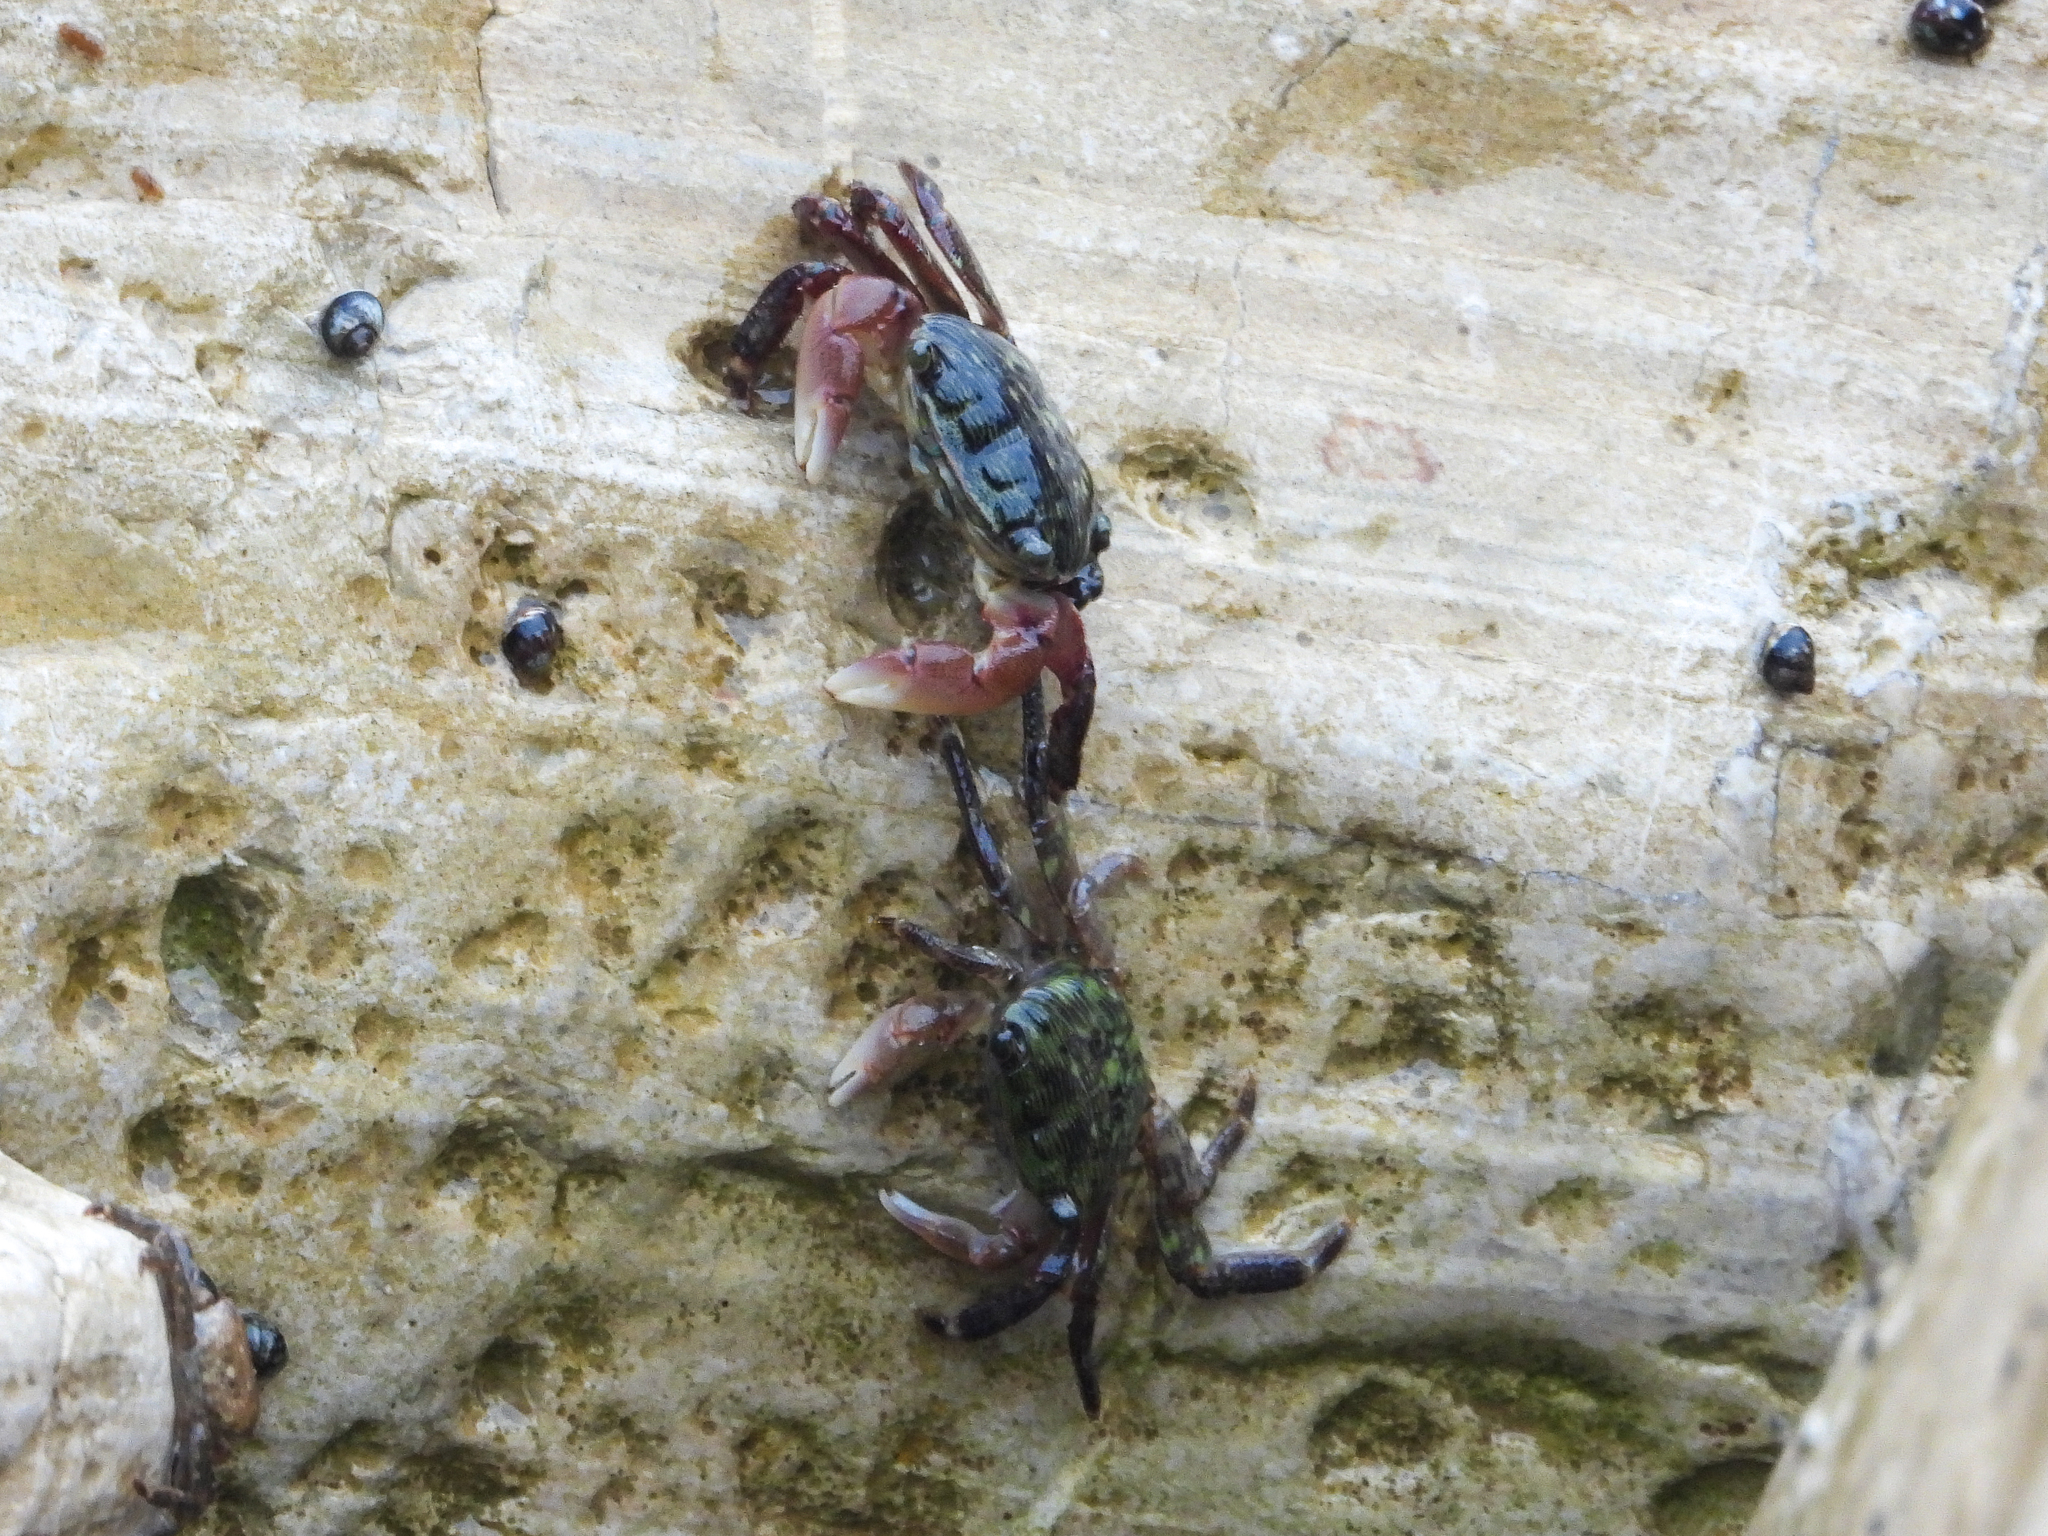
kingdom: Animalia
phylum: Arthropoda
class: Malacostraca
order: Decapoda
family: Grapsidae
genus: Pachygrapsus
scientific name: Pachygrapsus crassipes
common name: Striped shore crab
